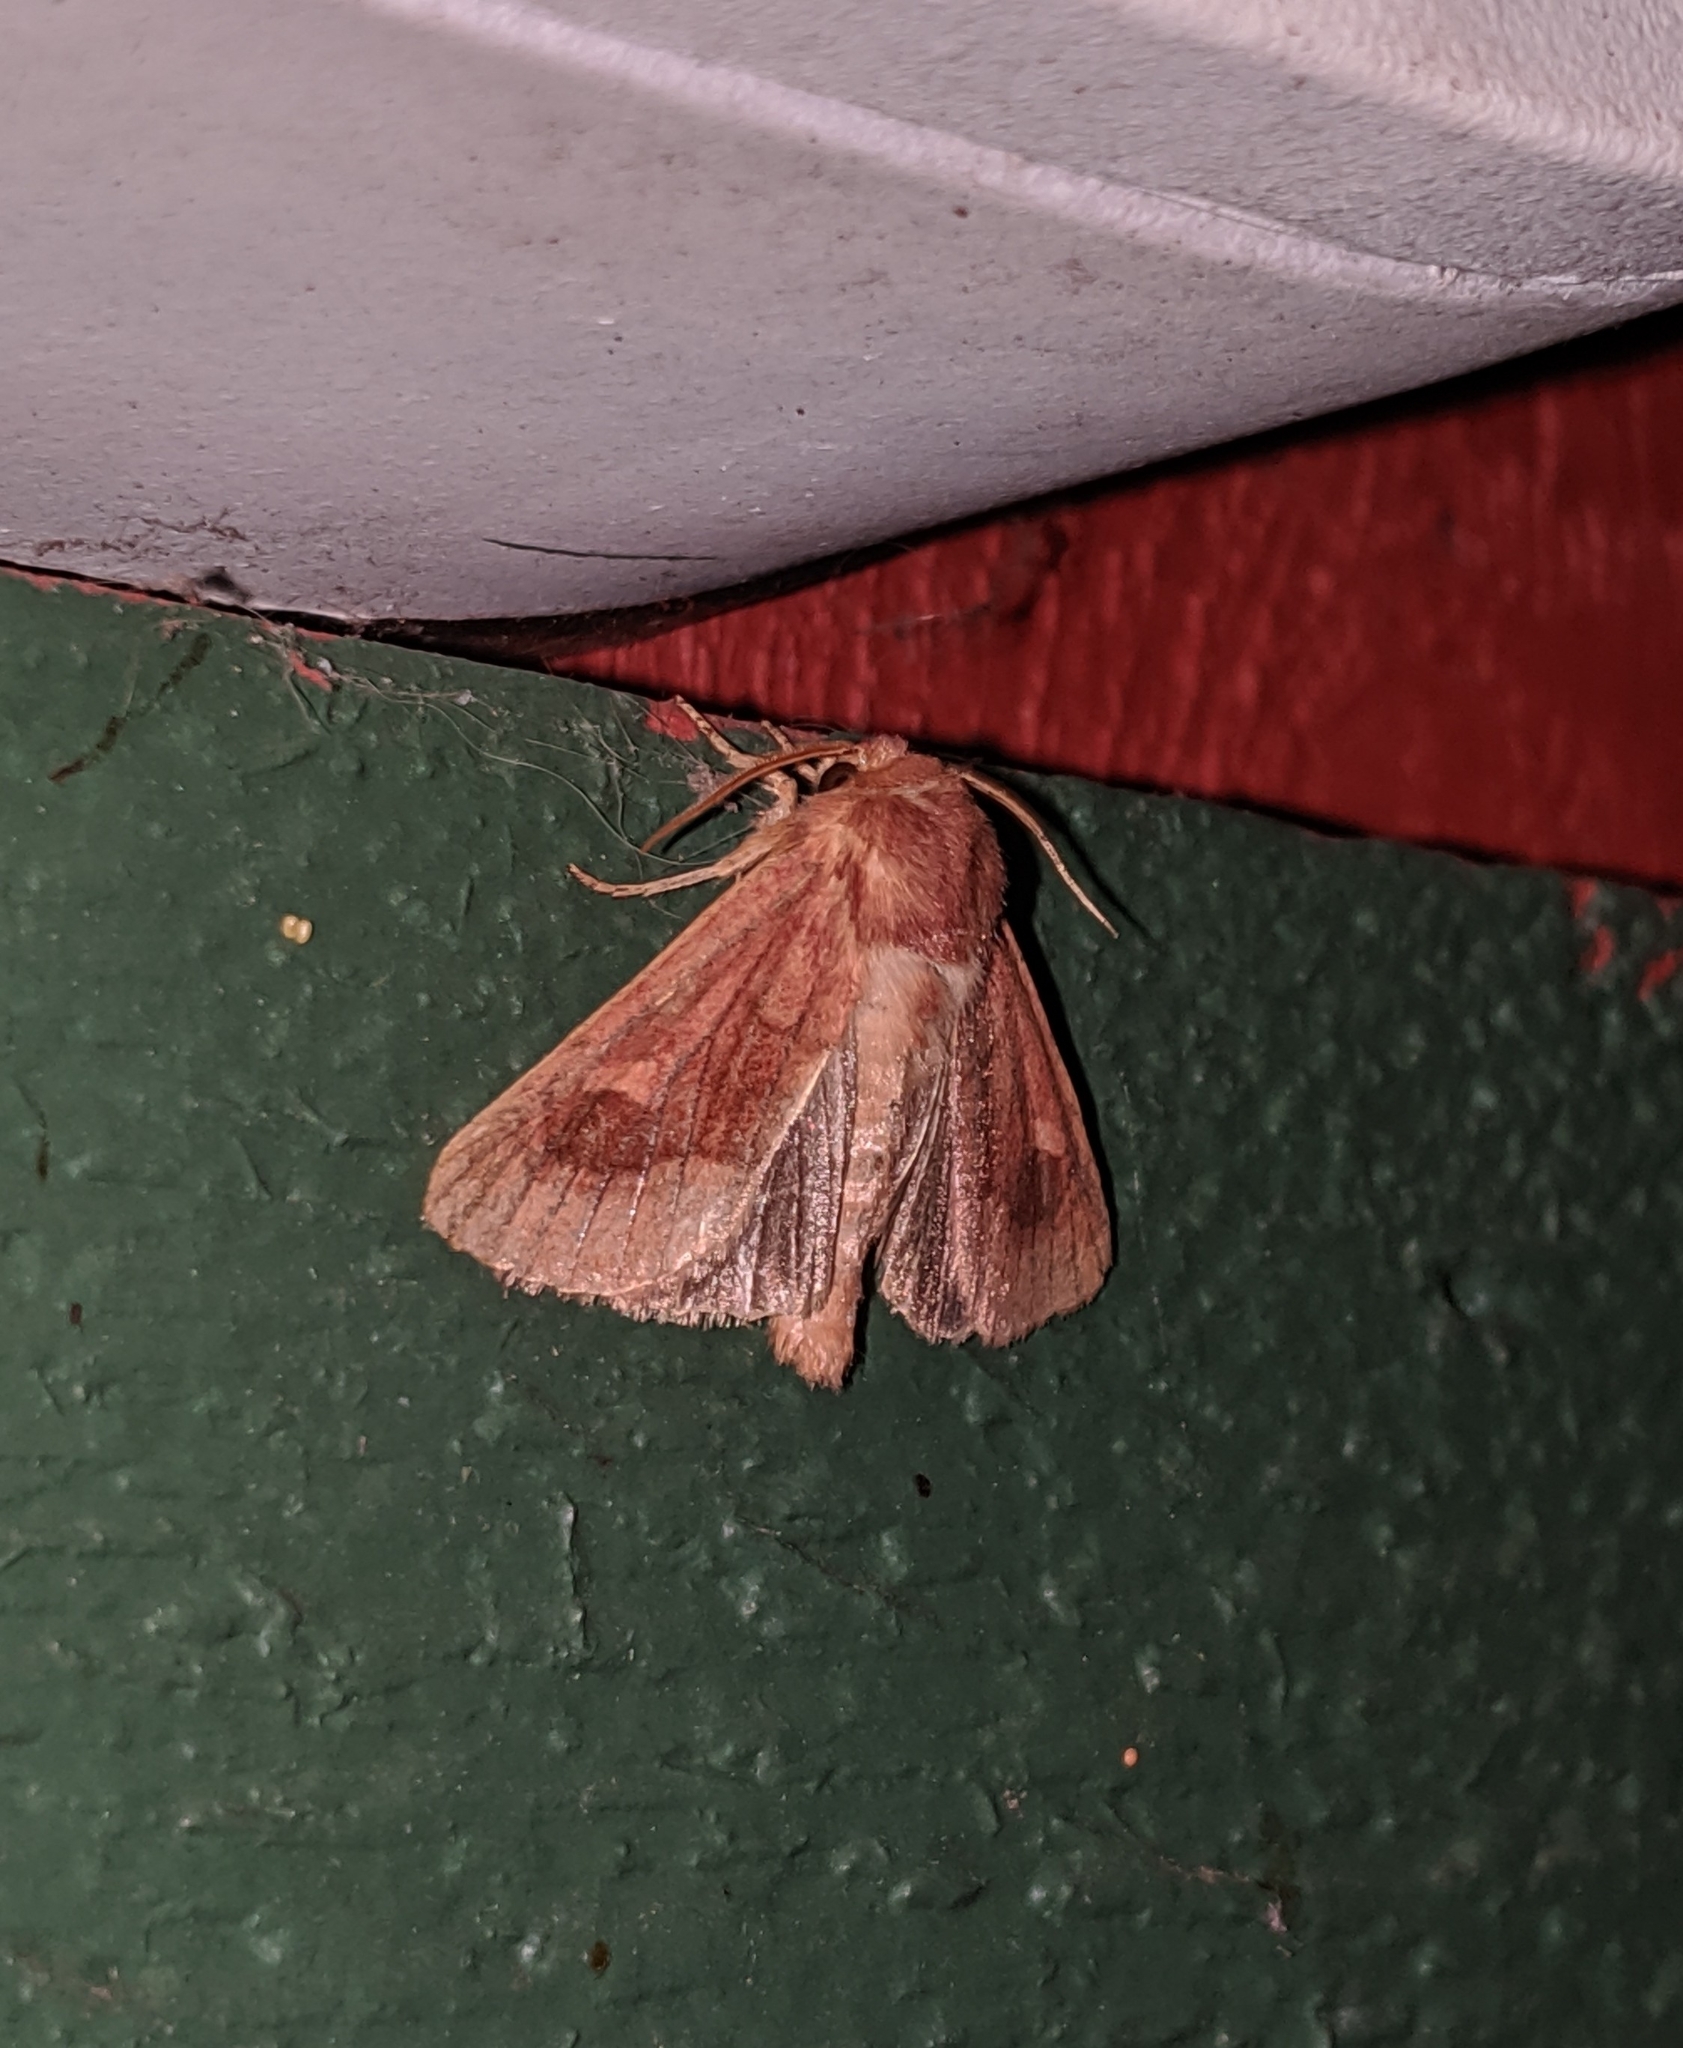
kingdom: Animalia
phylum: Arthropoda
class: Insecta
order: Lepidoptera
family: Noctuidae
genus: Nephelodes
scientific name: Nephelodes minians
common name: Bronzed cutworm
